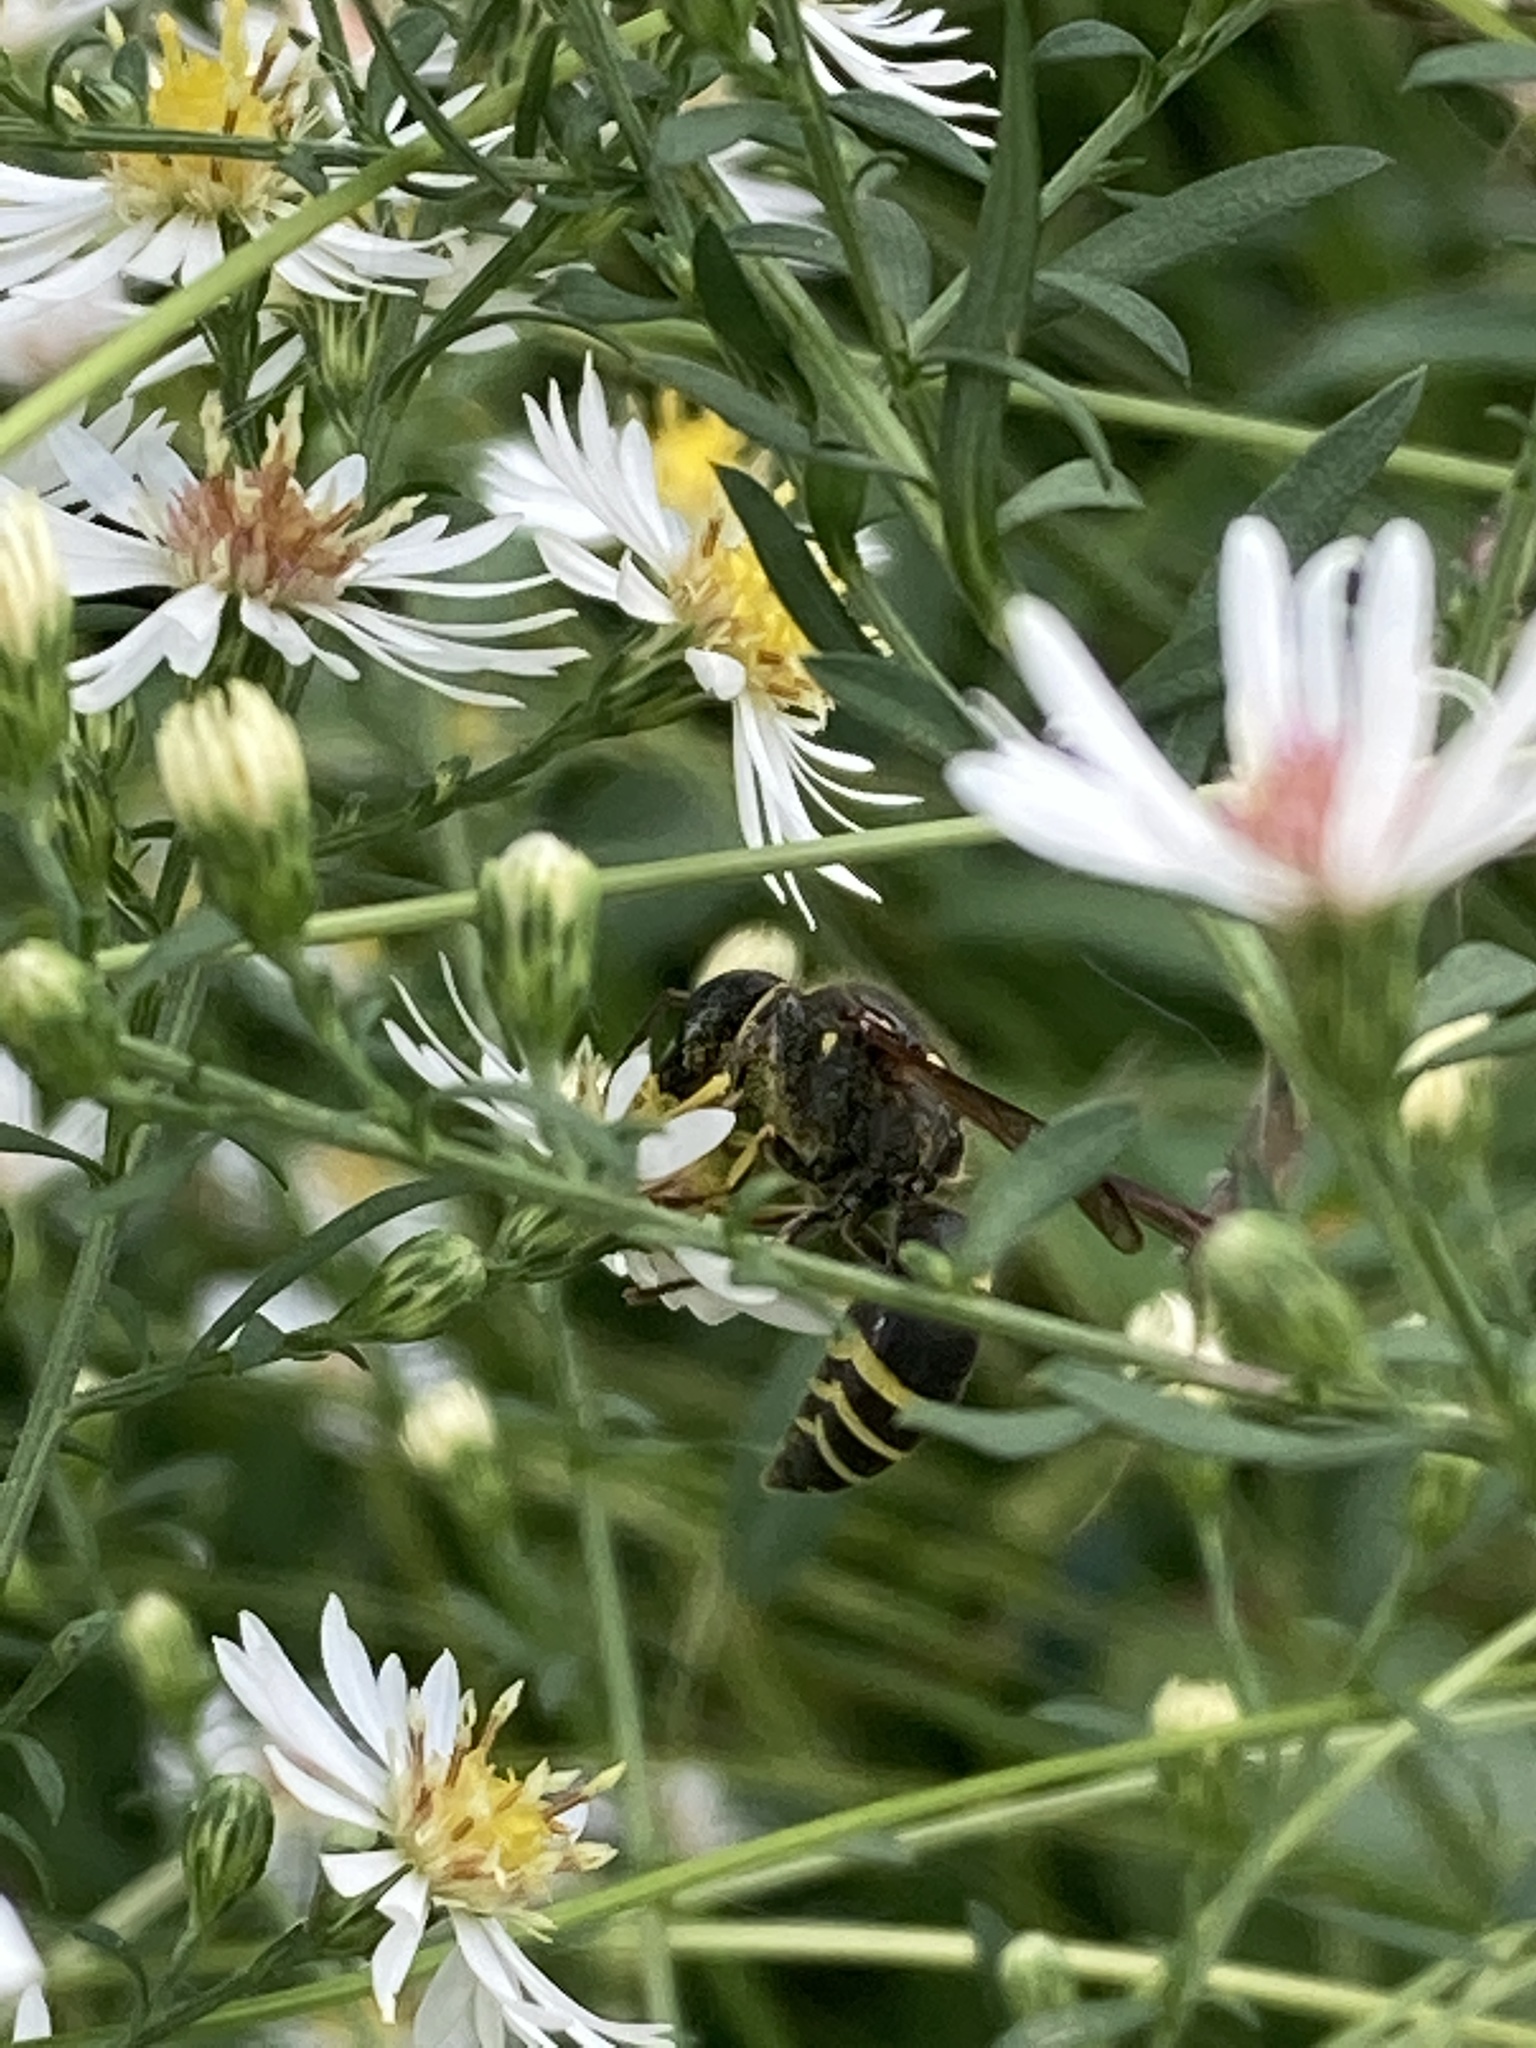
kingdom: Animalia
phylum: Arthropoda
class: Insecta
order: Hymenoptera
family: Vespidae
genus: Ancistrocerus
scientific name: Ancistrocerus
